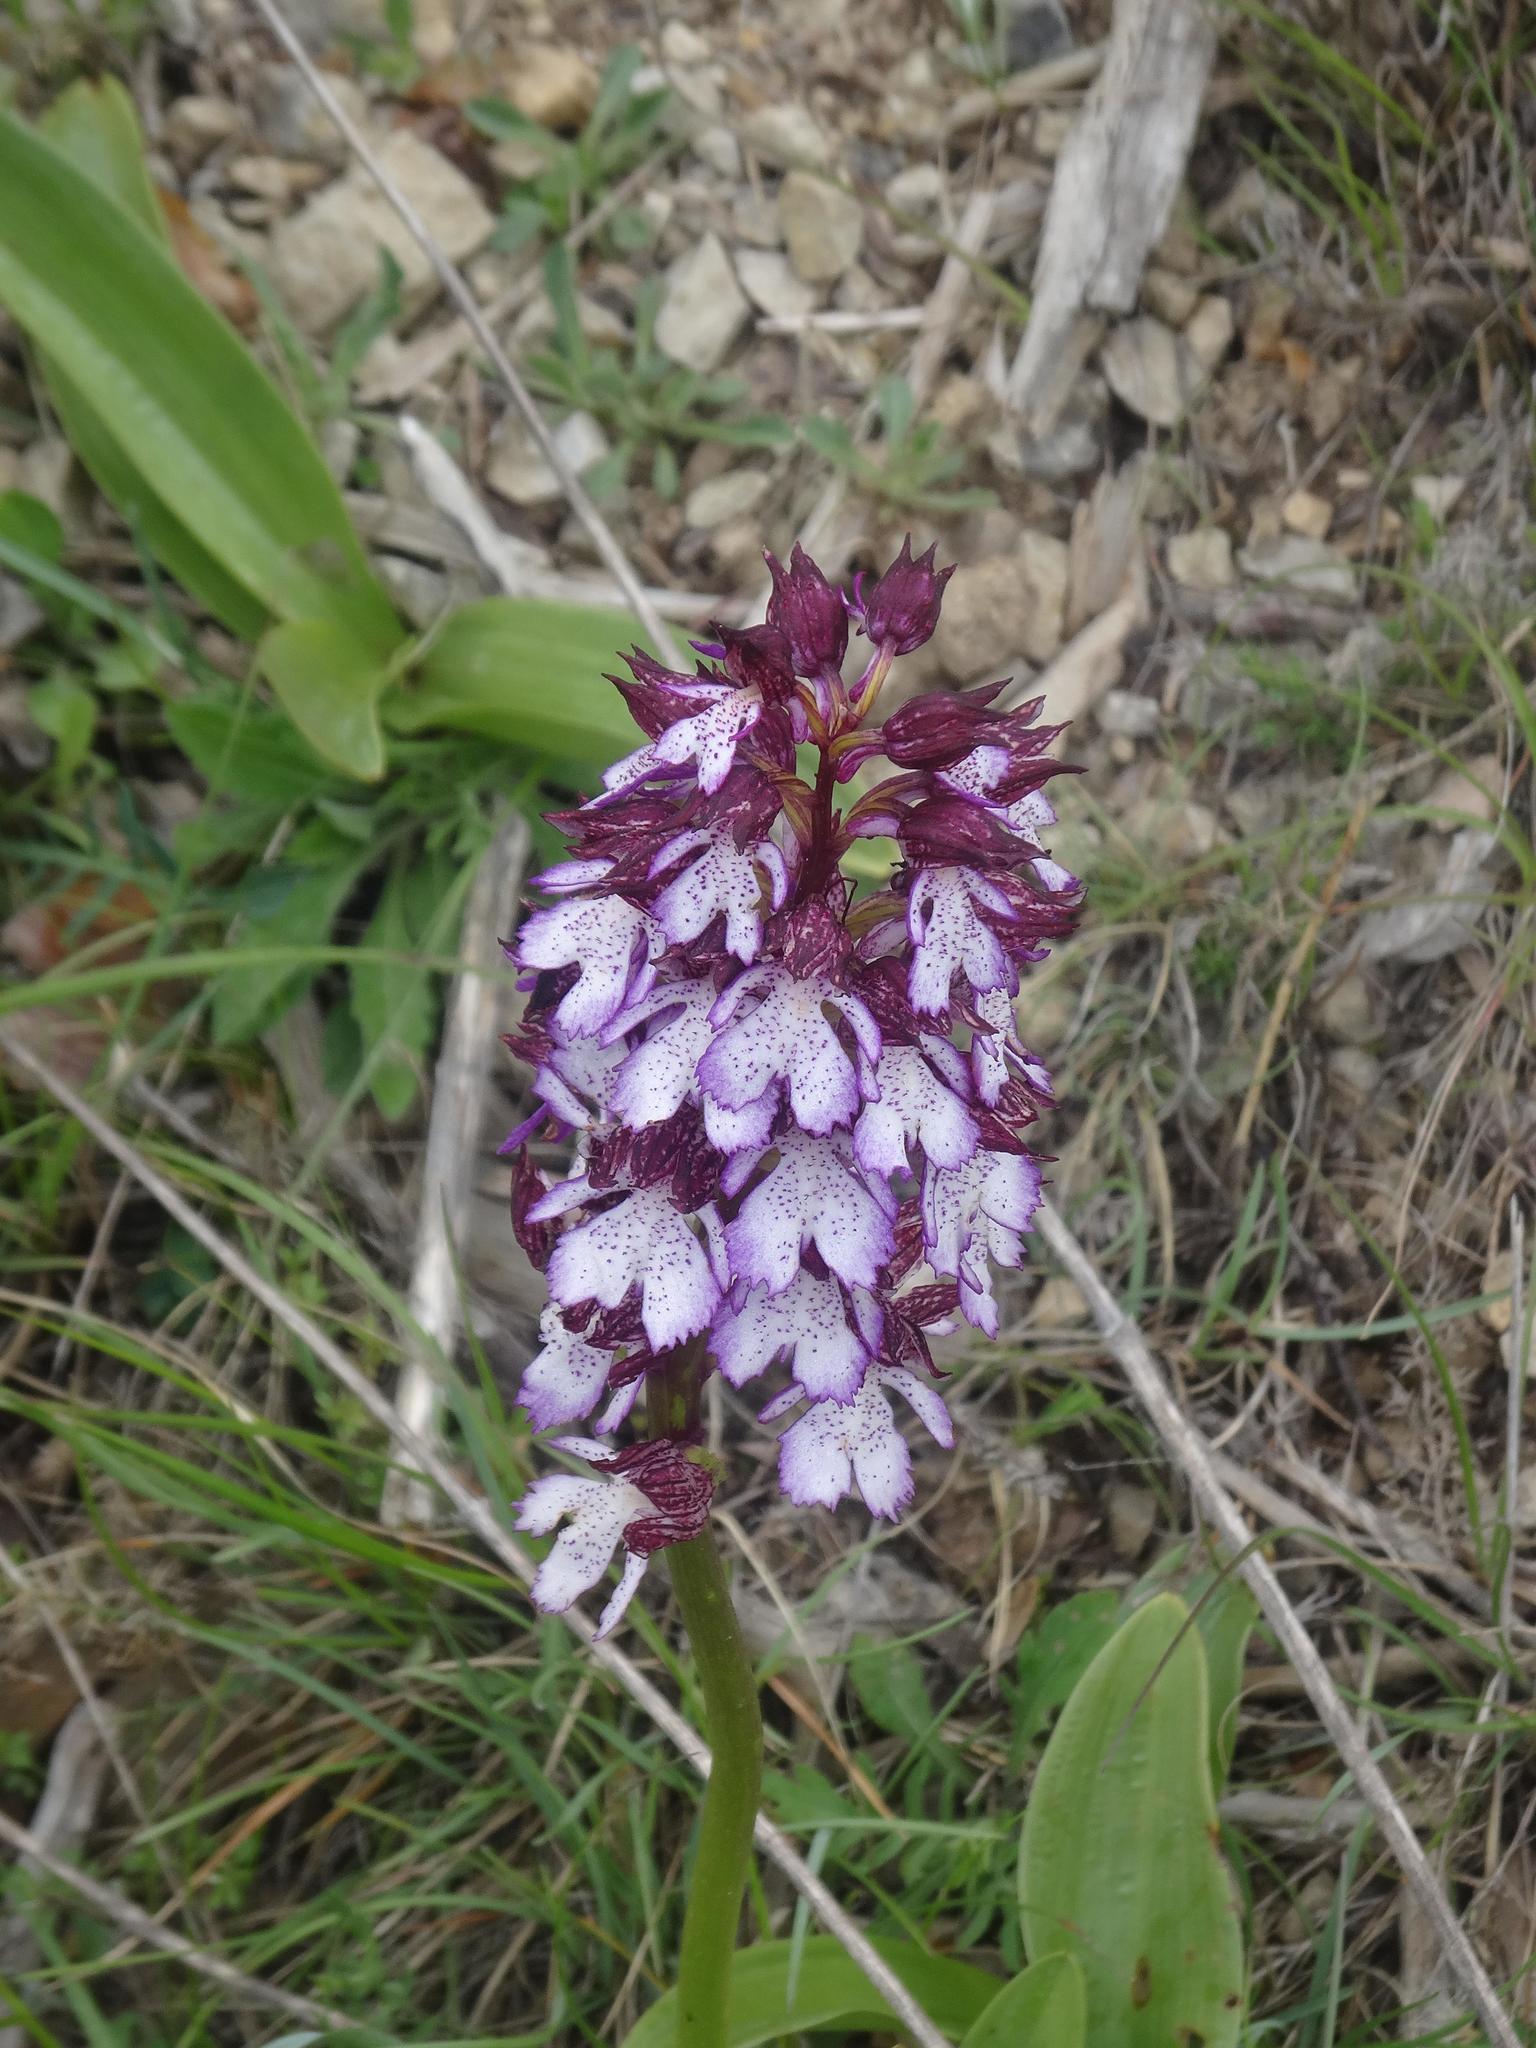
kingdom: Plantae
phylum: Tracheophyta
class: Liliopsida
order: Asparagales
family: Orchidaceae
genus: Orchis
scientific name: Orchis purpurea
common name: Lady orchid
